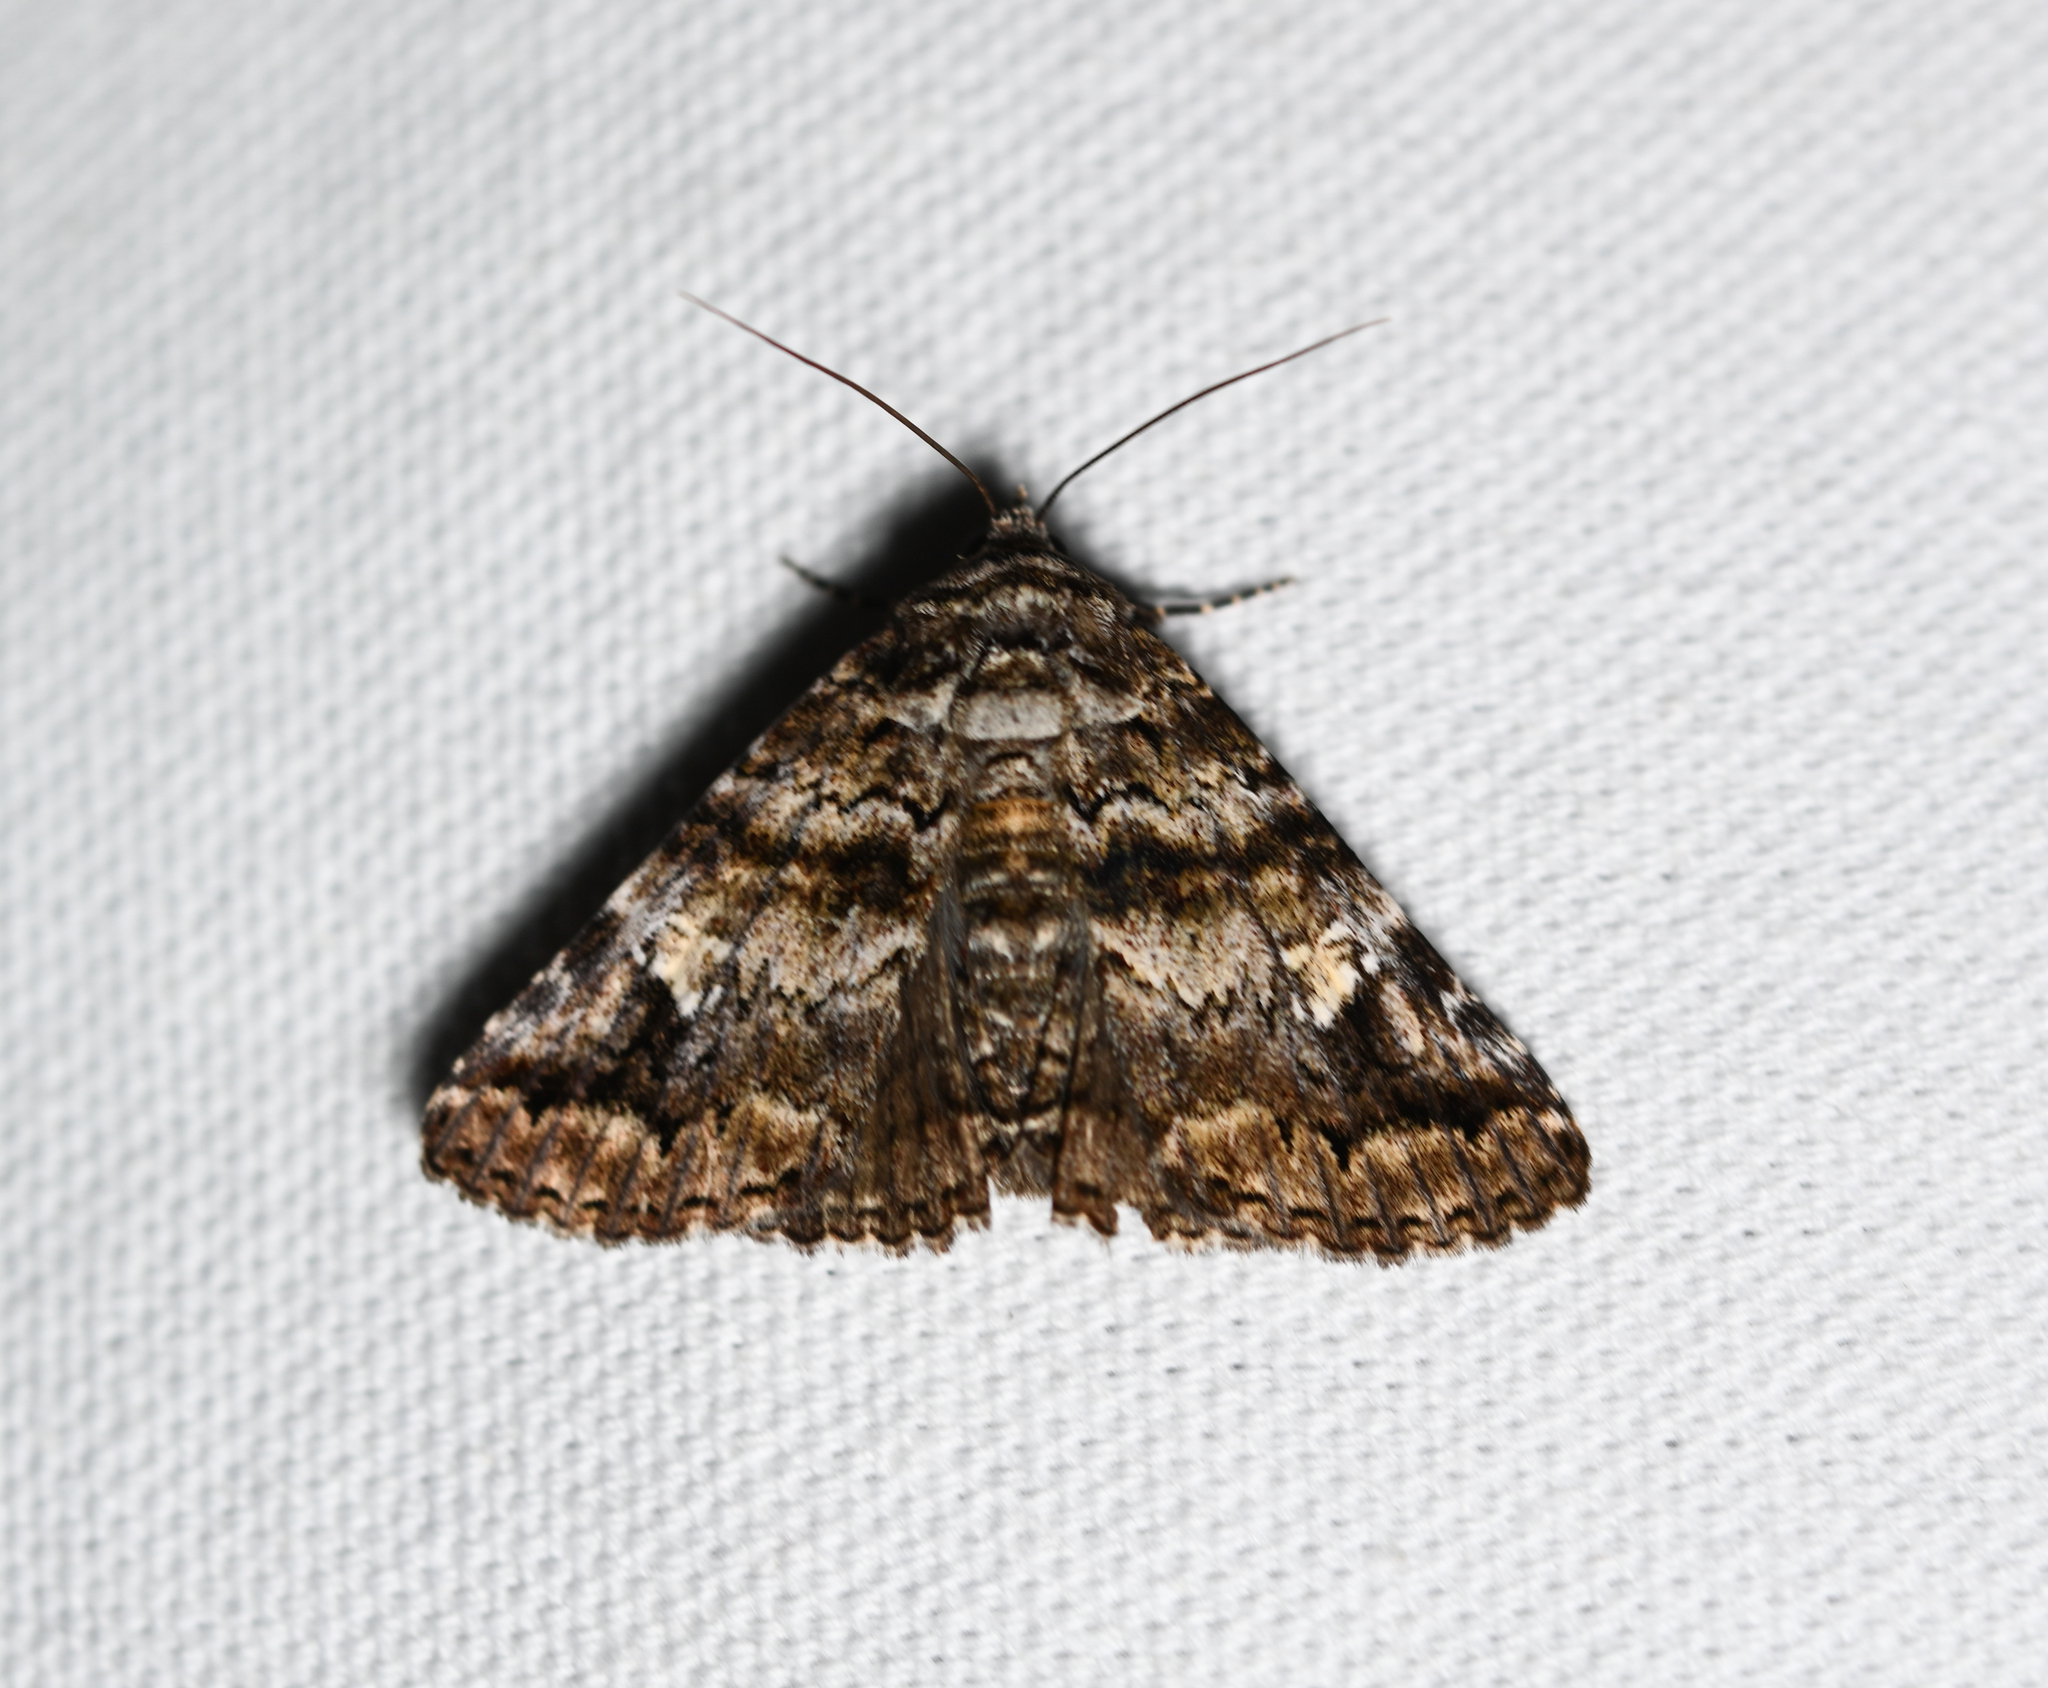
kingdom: Animalia
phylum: Arthropoda
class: Insecta
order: Lepidoptera
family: Erebidae
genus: Metria
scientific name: Metria amella
